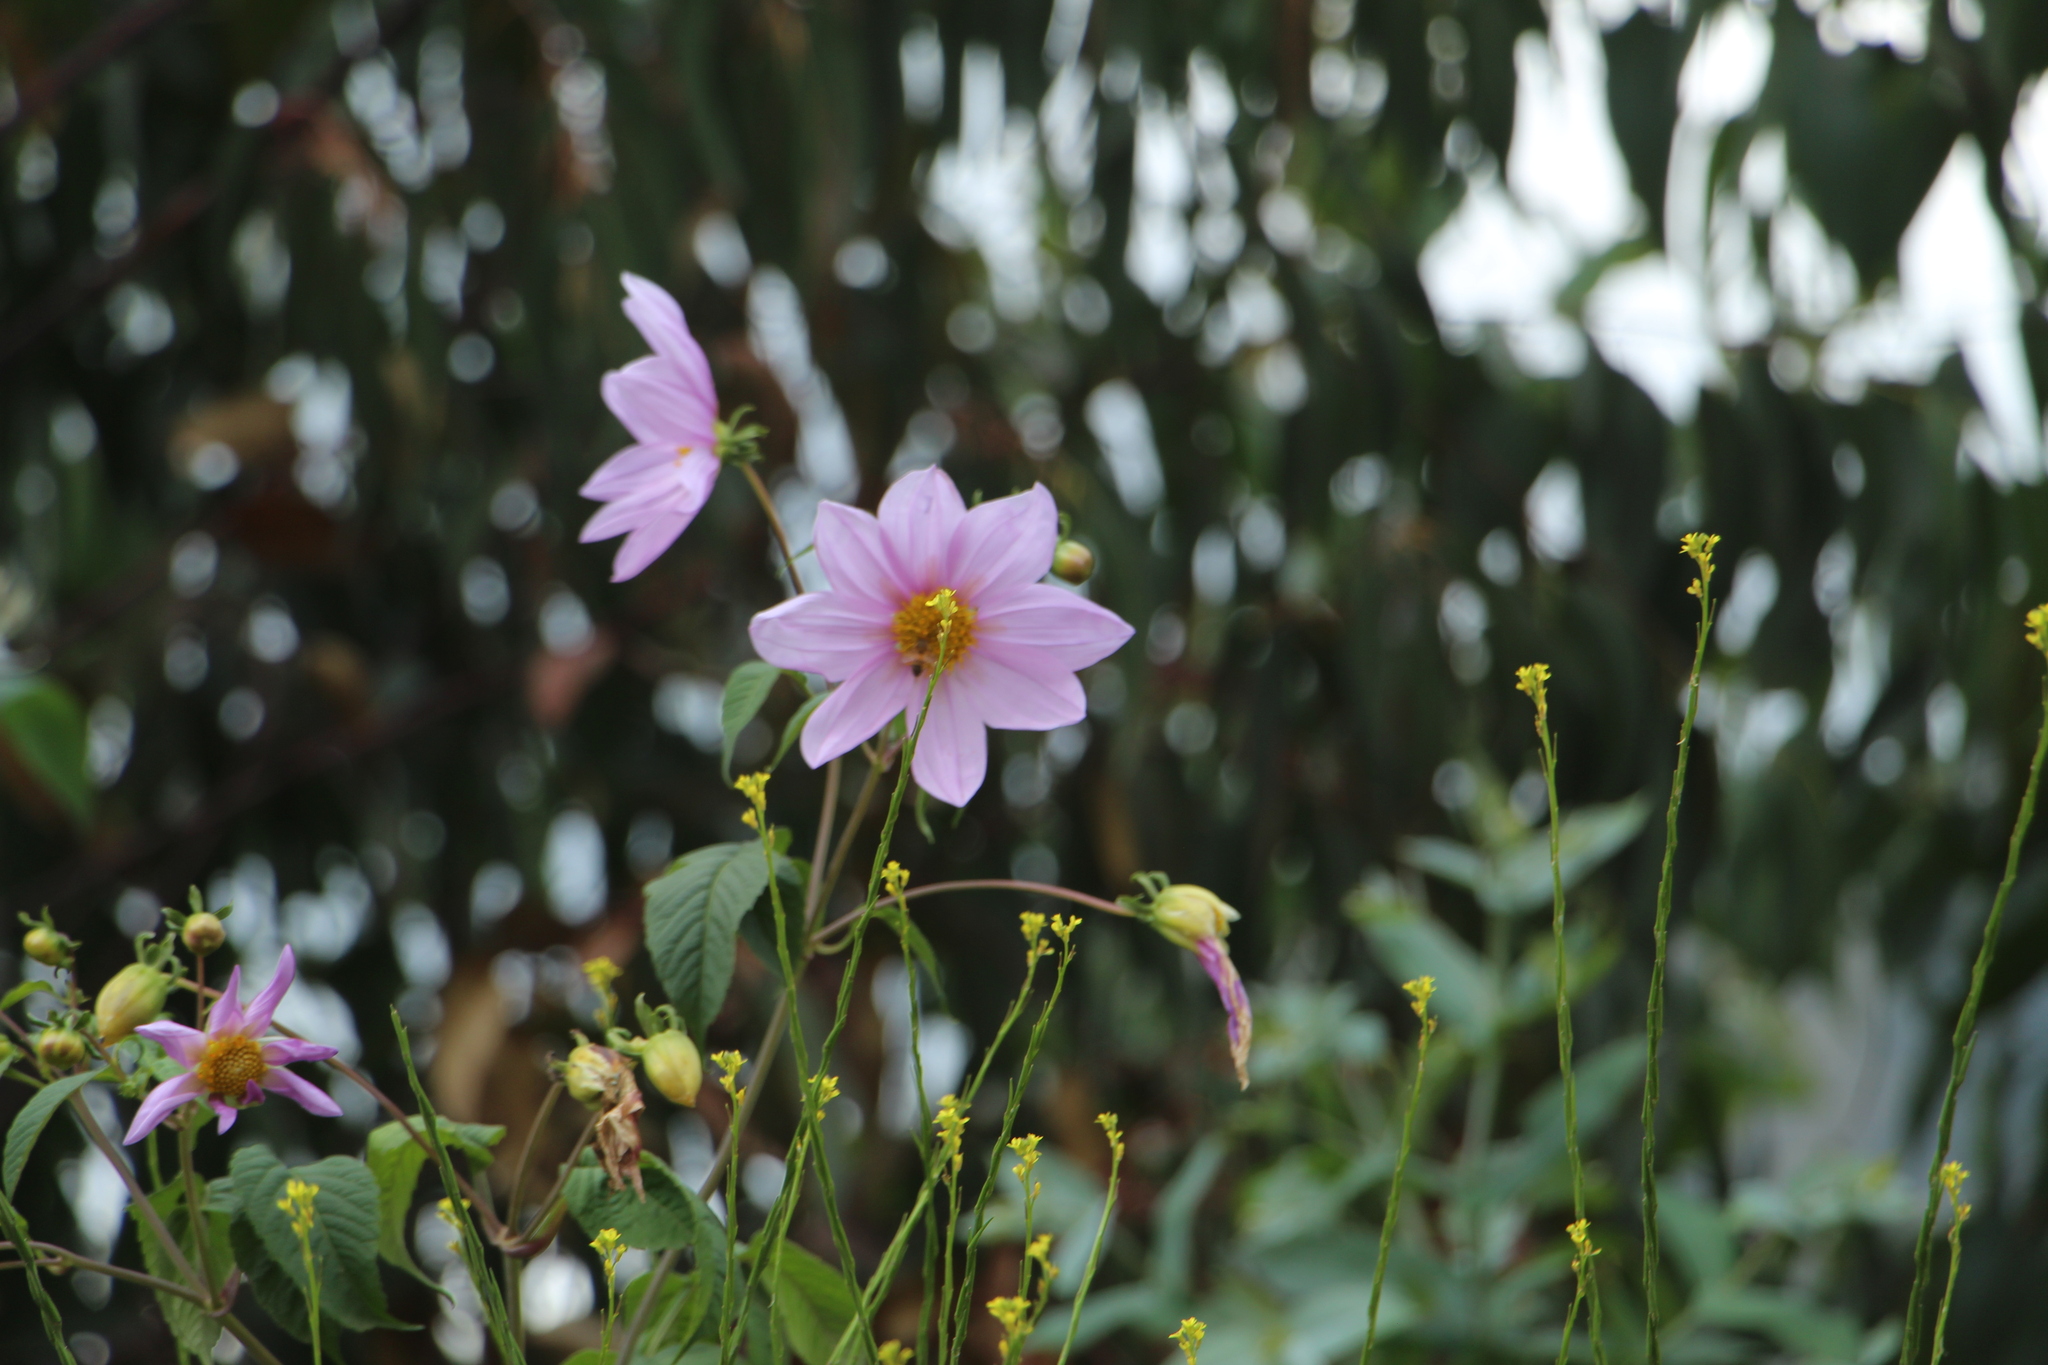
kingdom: Plantae
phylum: Tracheophyta
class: Magnoliopsida
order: Asterales
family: Asteraceae
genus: Dahlia
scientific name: Dahlia imperialis
